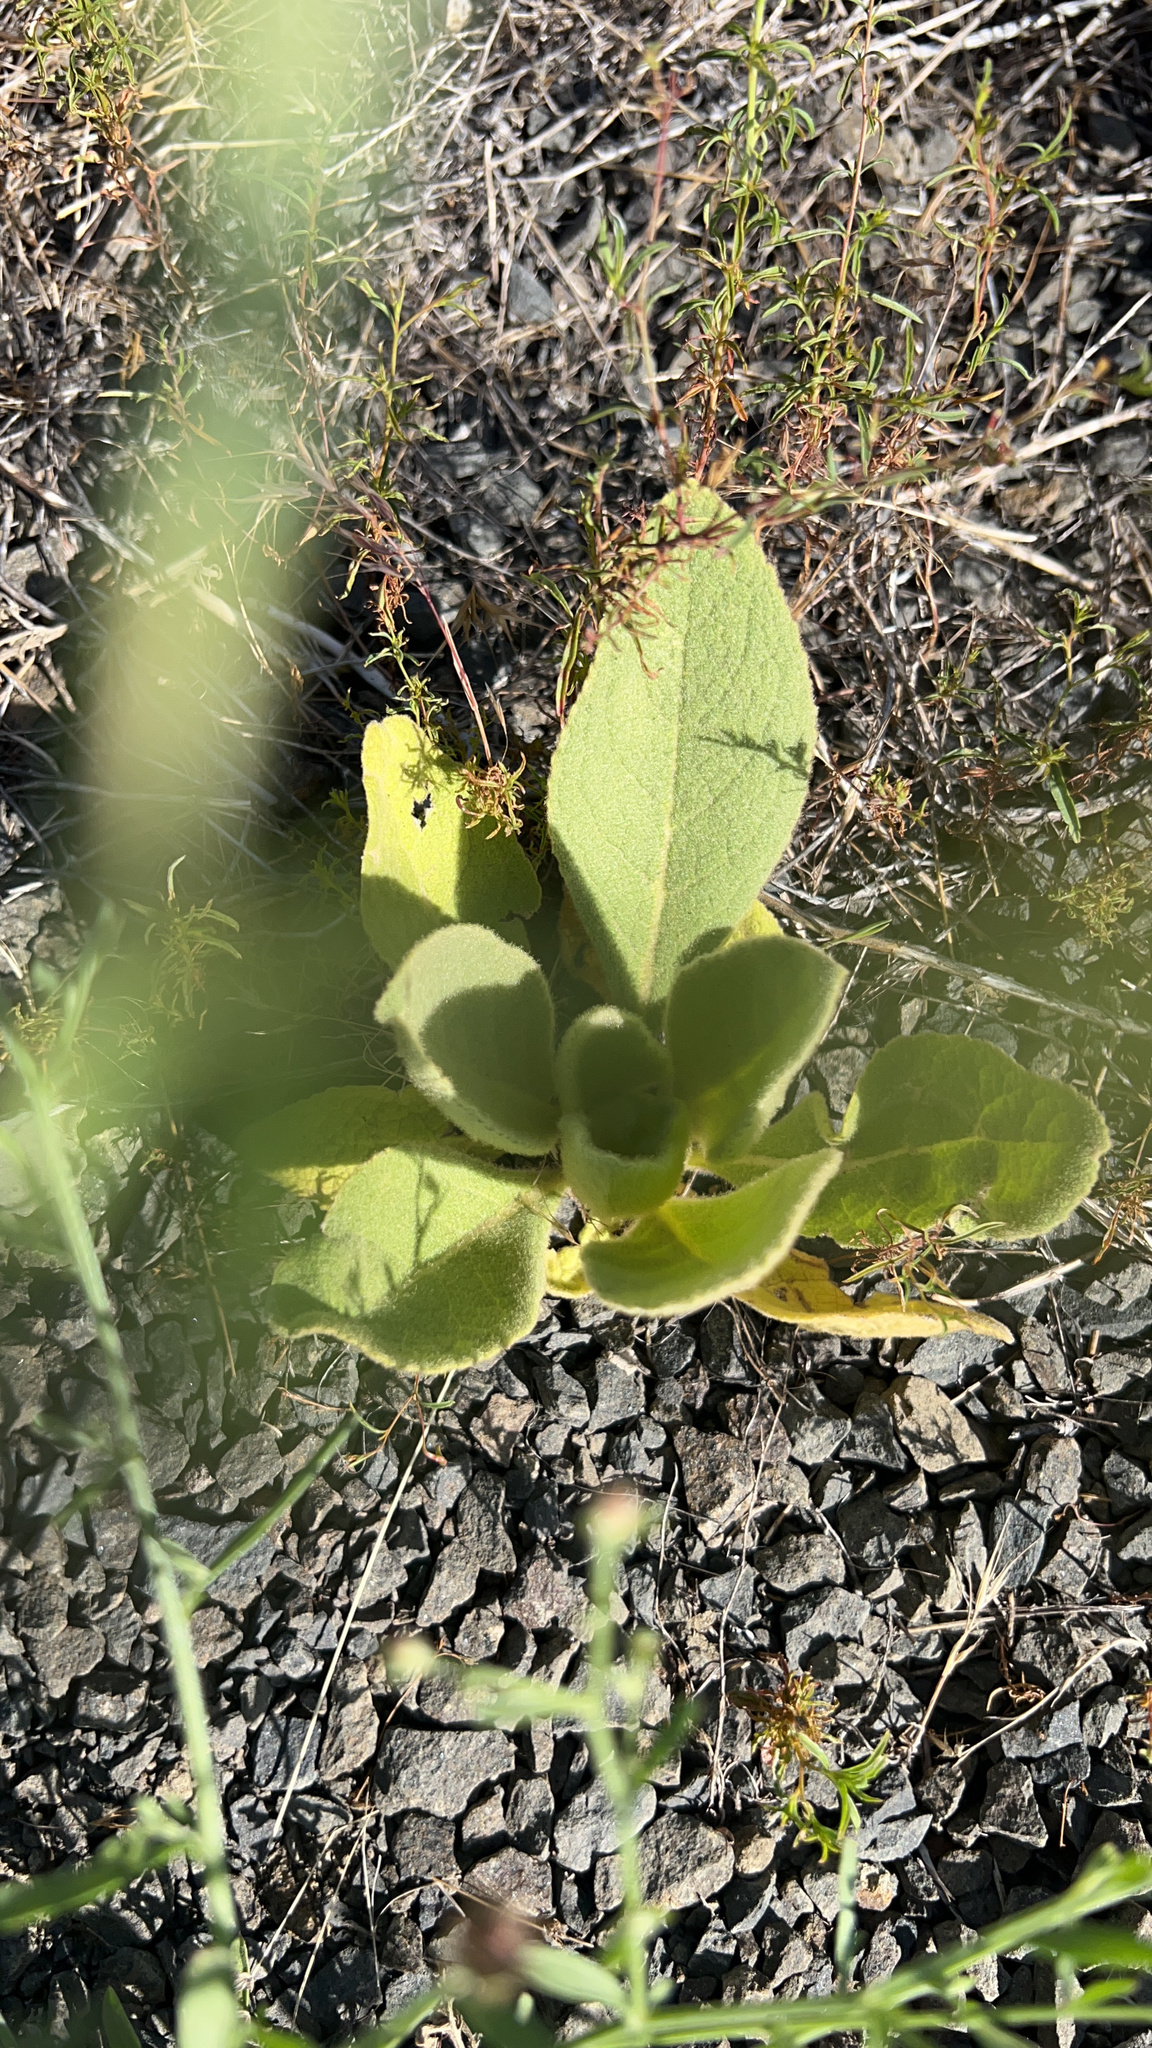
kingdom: Plantae
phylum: Tracheophyta
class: Magnoliopsida
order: Lamiales
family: Scrophulariaceae
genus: Verbascum
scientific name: Verbascum thapsus
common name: Common mullein
